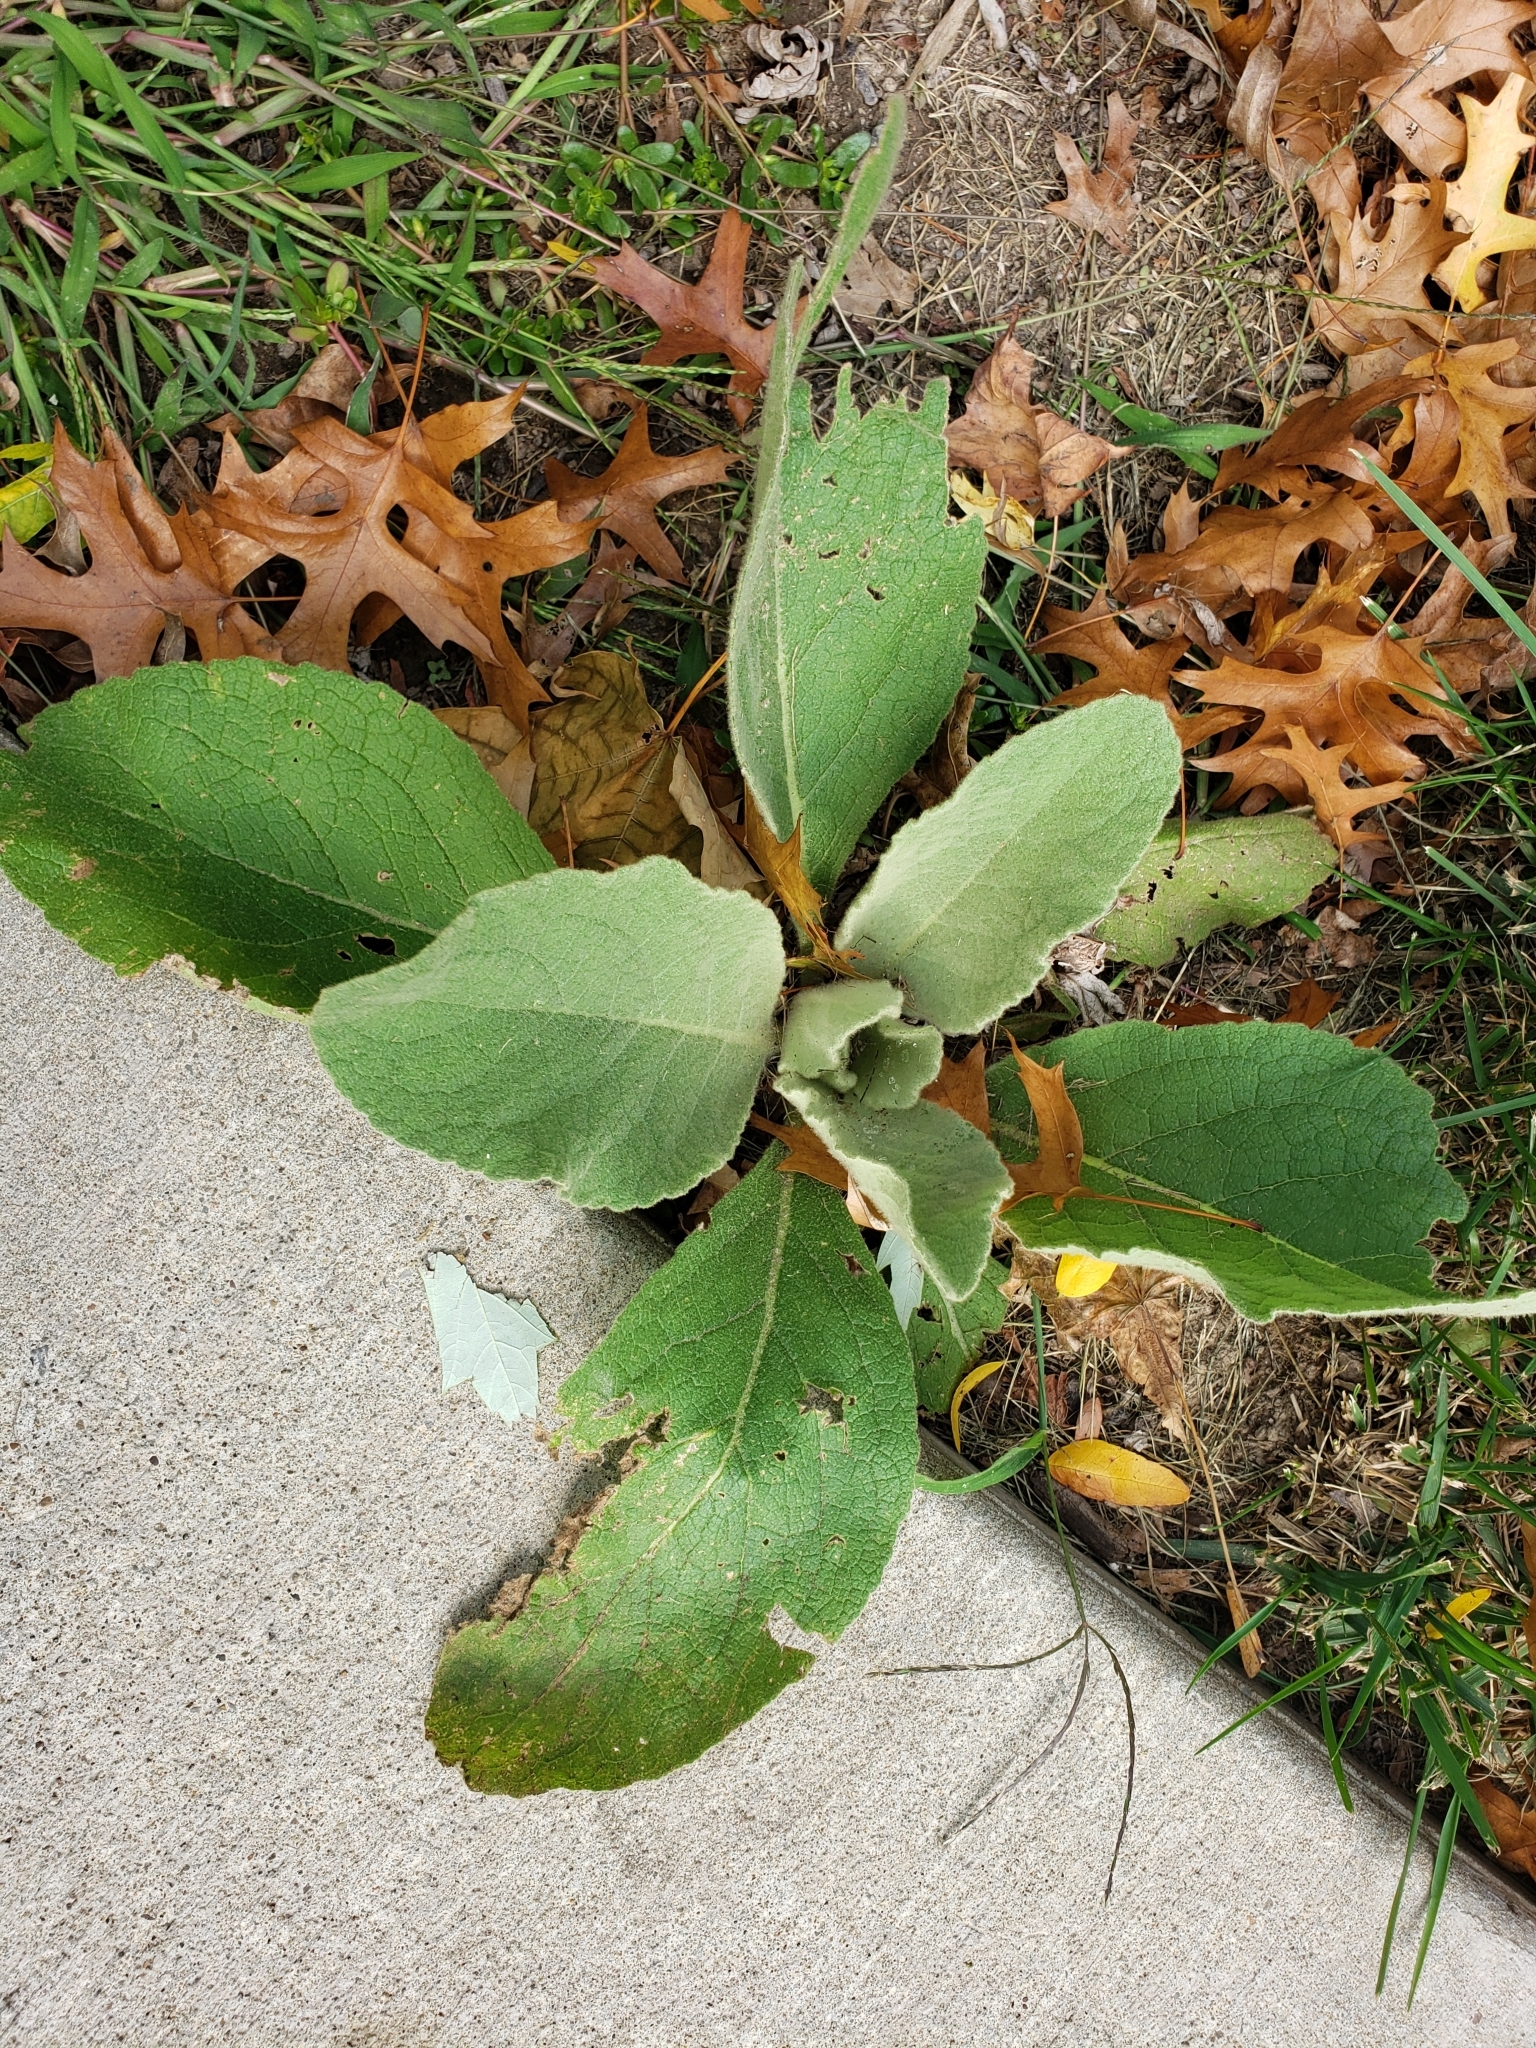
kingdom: Plantae
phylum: Tracheophyta
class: Magnoliopsida
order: Lamiales
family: Scrophulariaceae
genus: Verbascum
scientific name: Verbascum thapsus
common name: Common mullein
